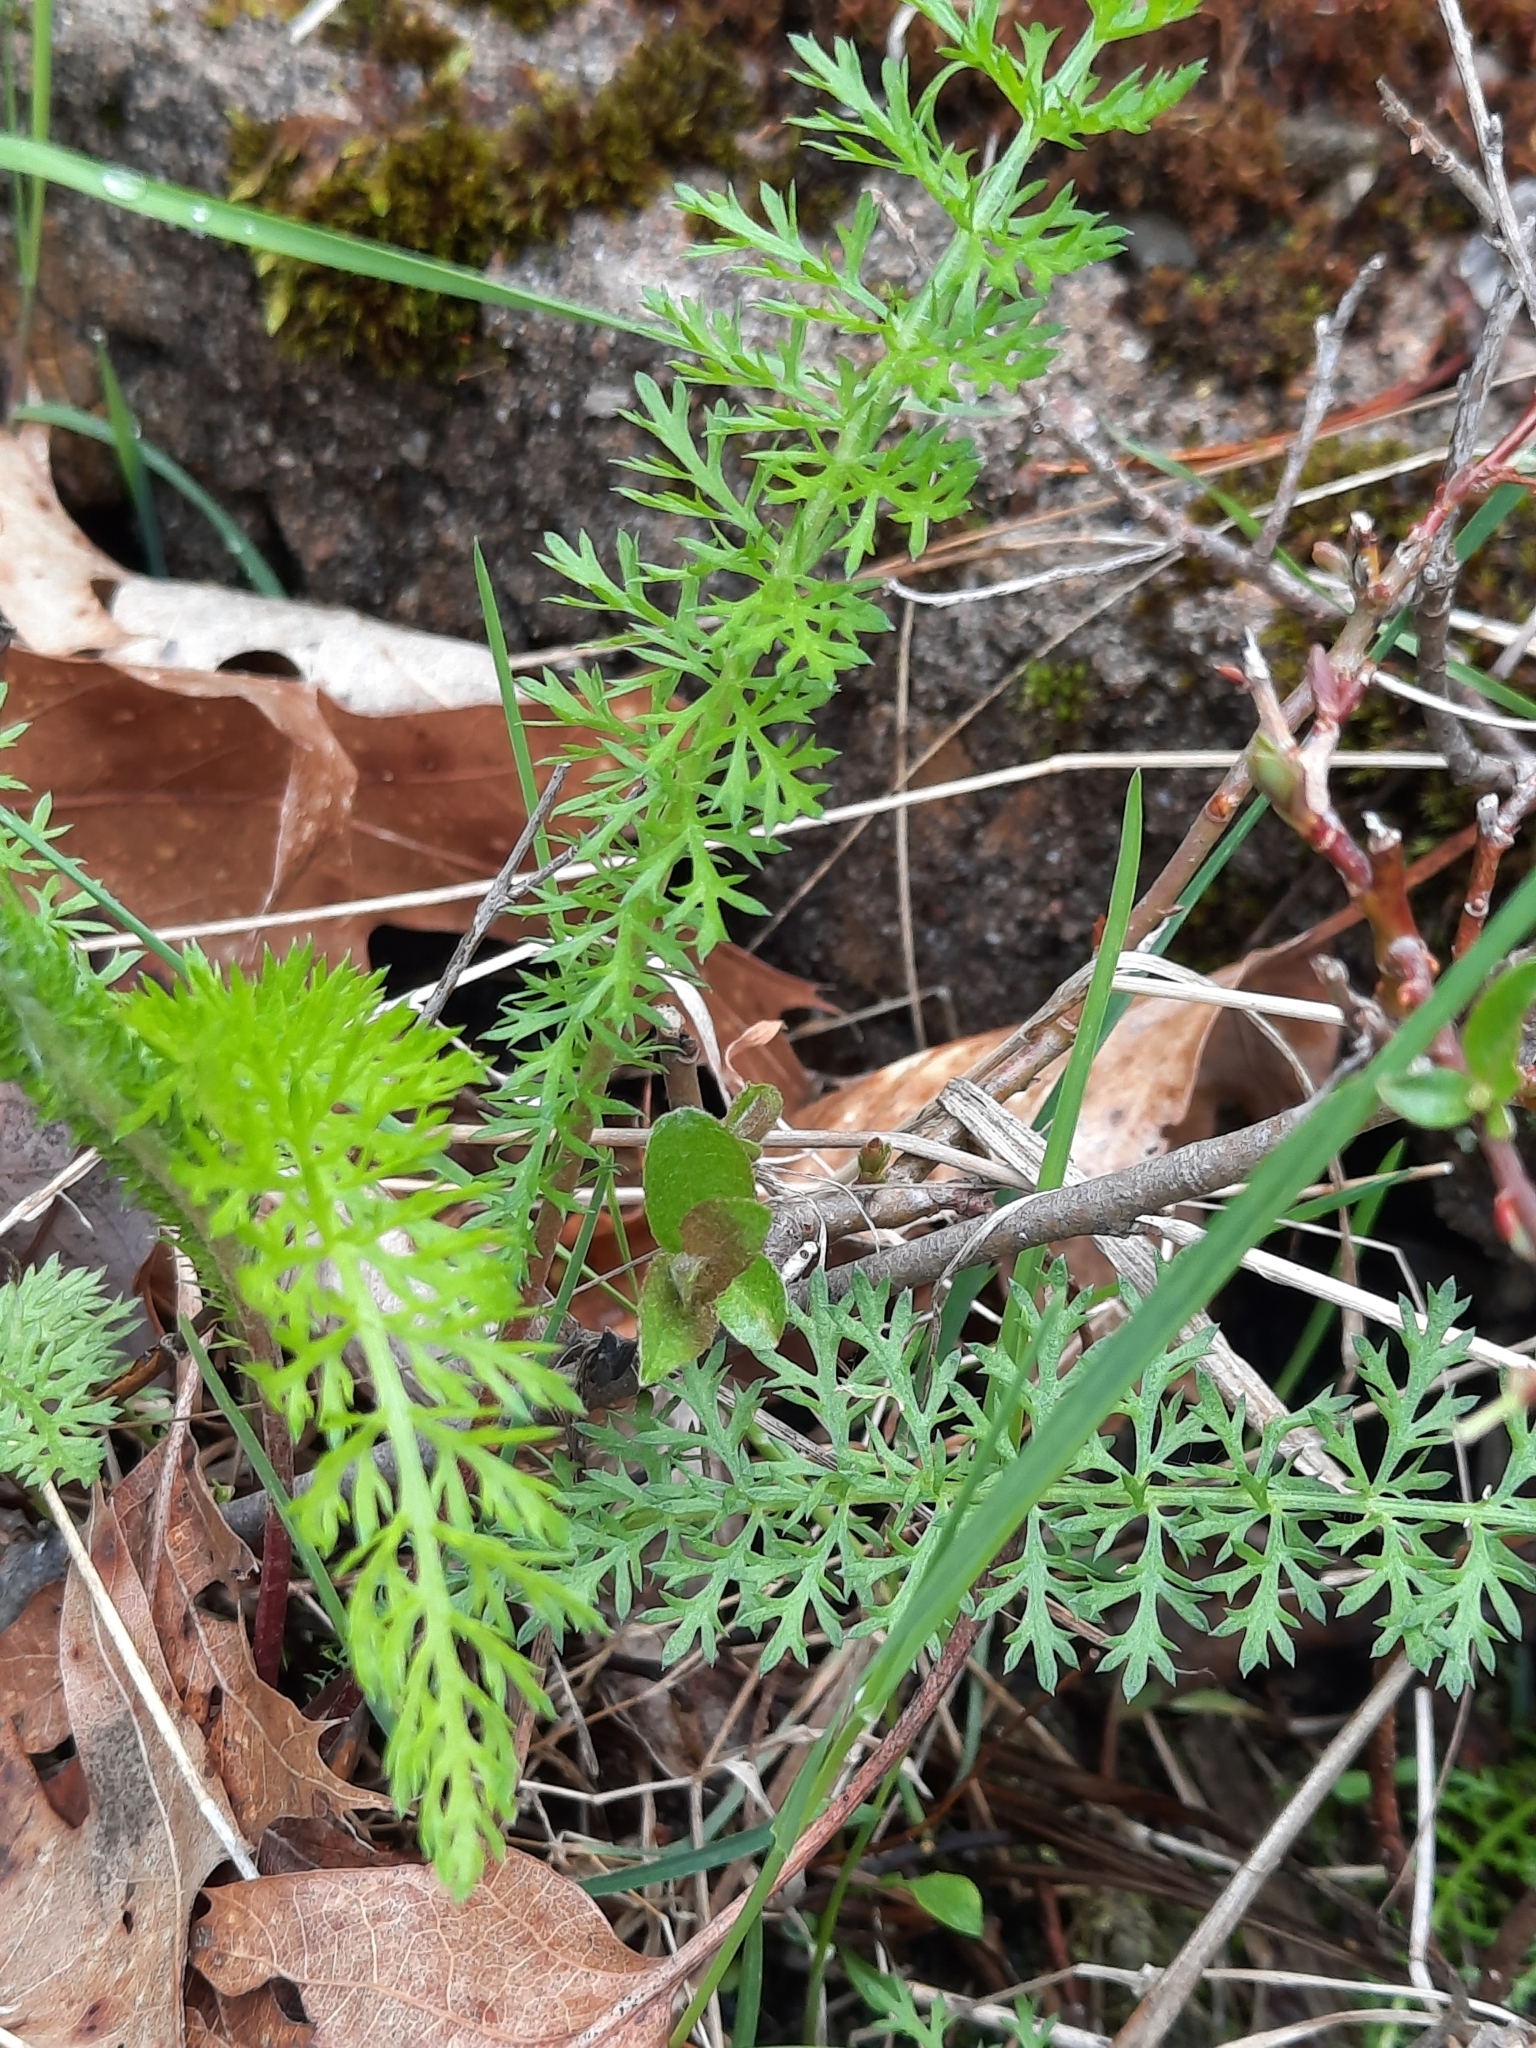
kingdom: Plantae
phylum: Tracheophyta
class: Magnoliopsida
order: Asterales
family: Asteraceae
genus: Achillea
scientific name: Achillea millefolium
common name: Yarrow
